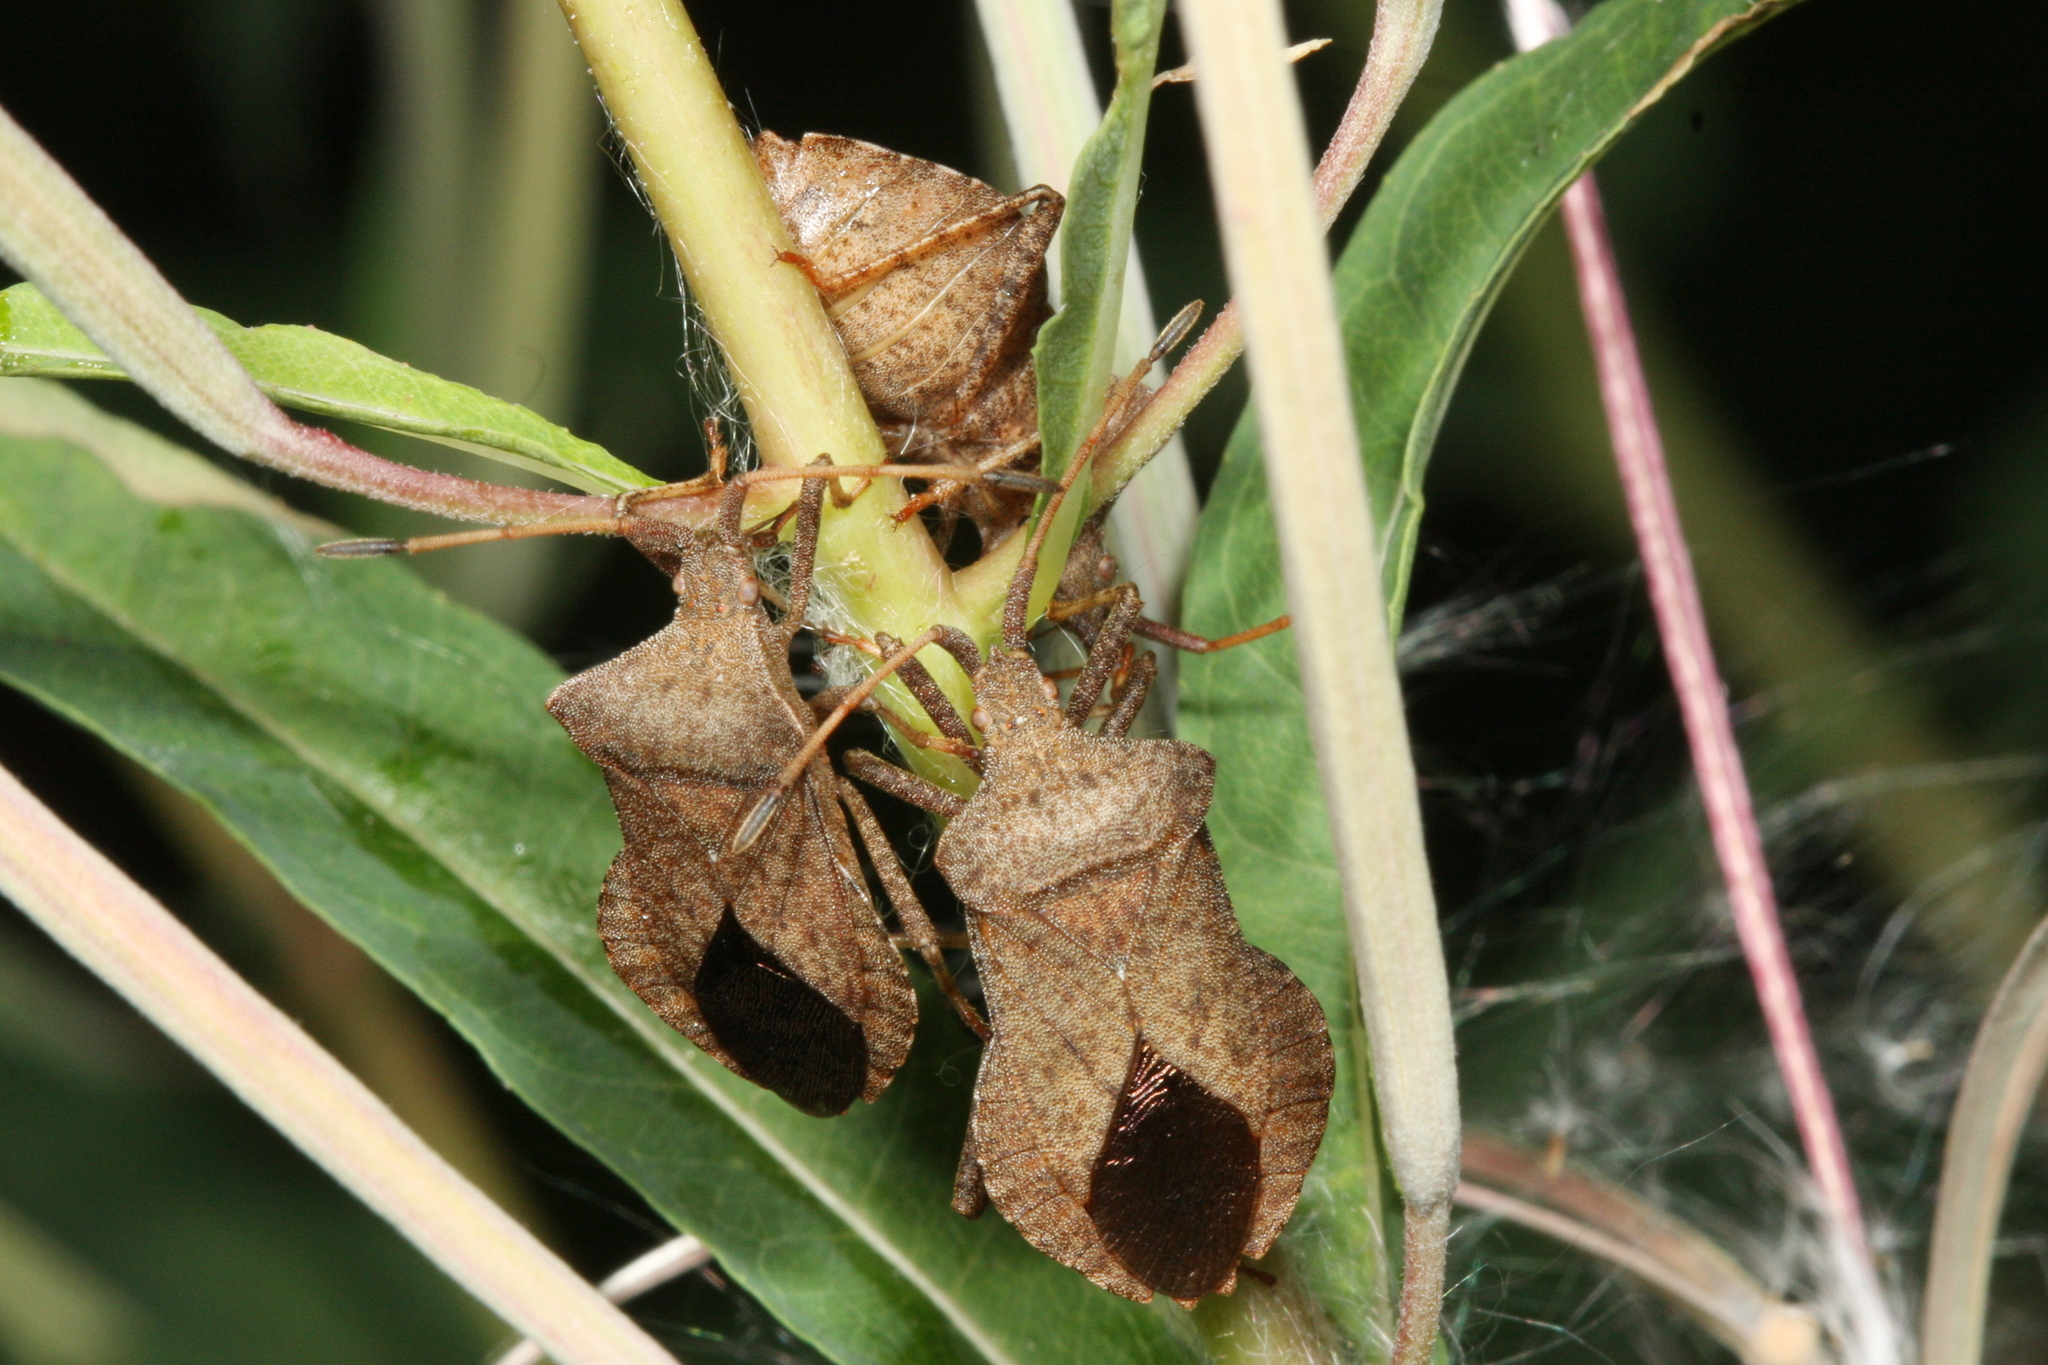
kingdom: Animalia
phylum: Arthropoda
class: Insecta
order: Hemiptera
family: Coreidae
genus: Coreus
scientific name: Coreus marginatus
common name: Dock bug
